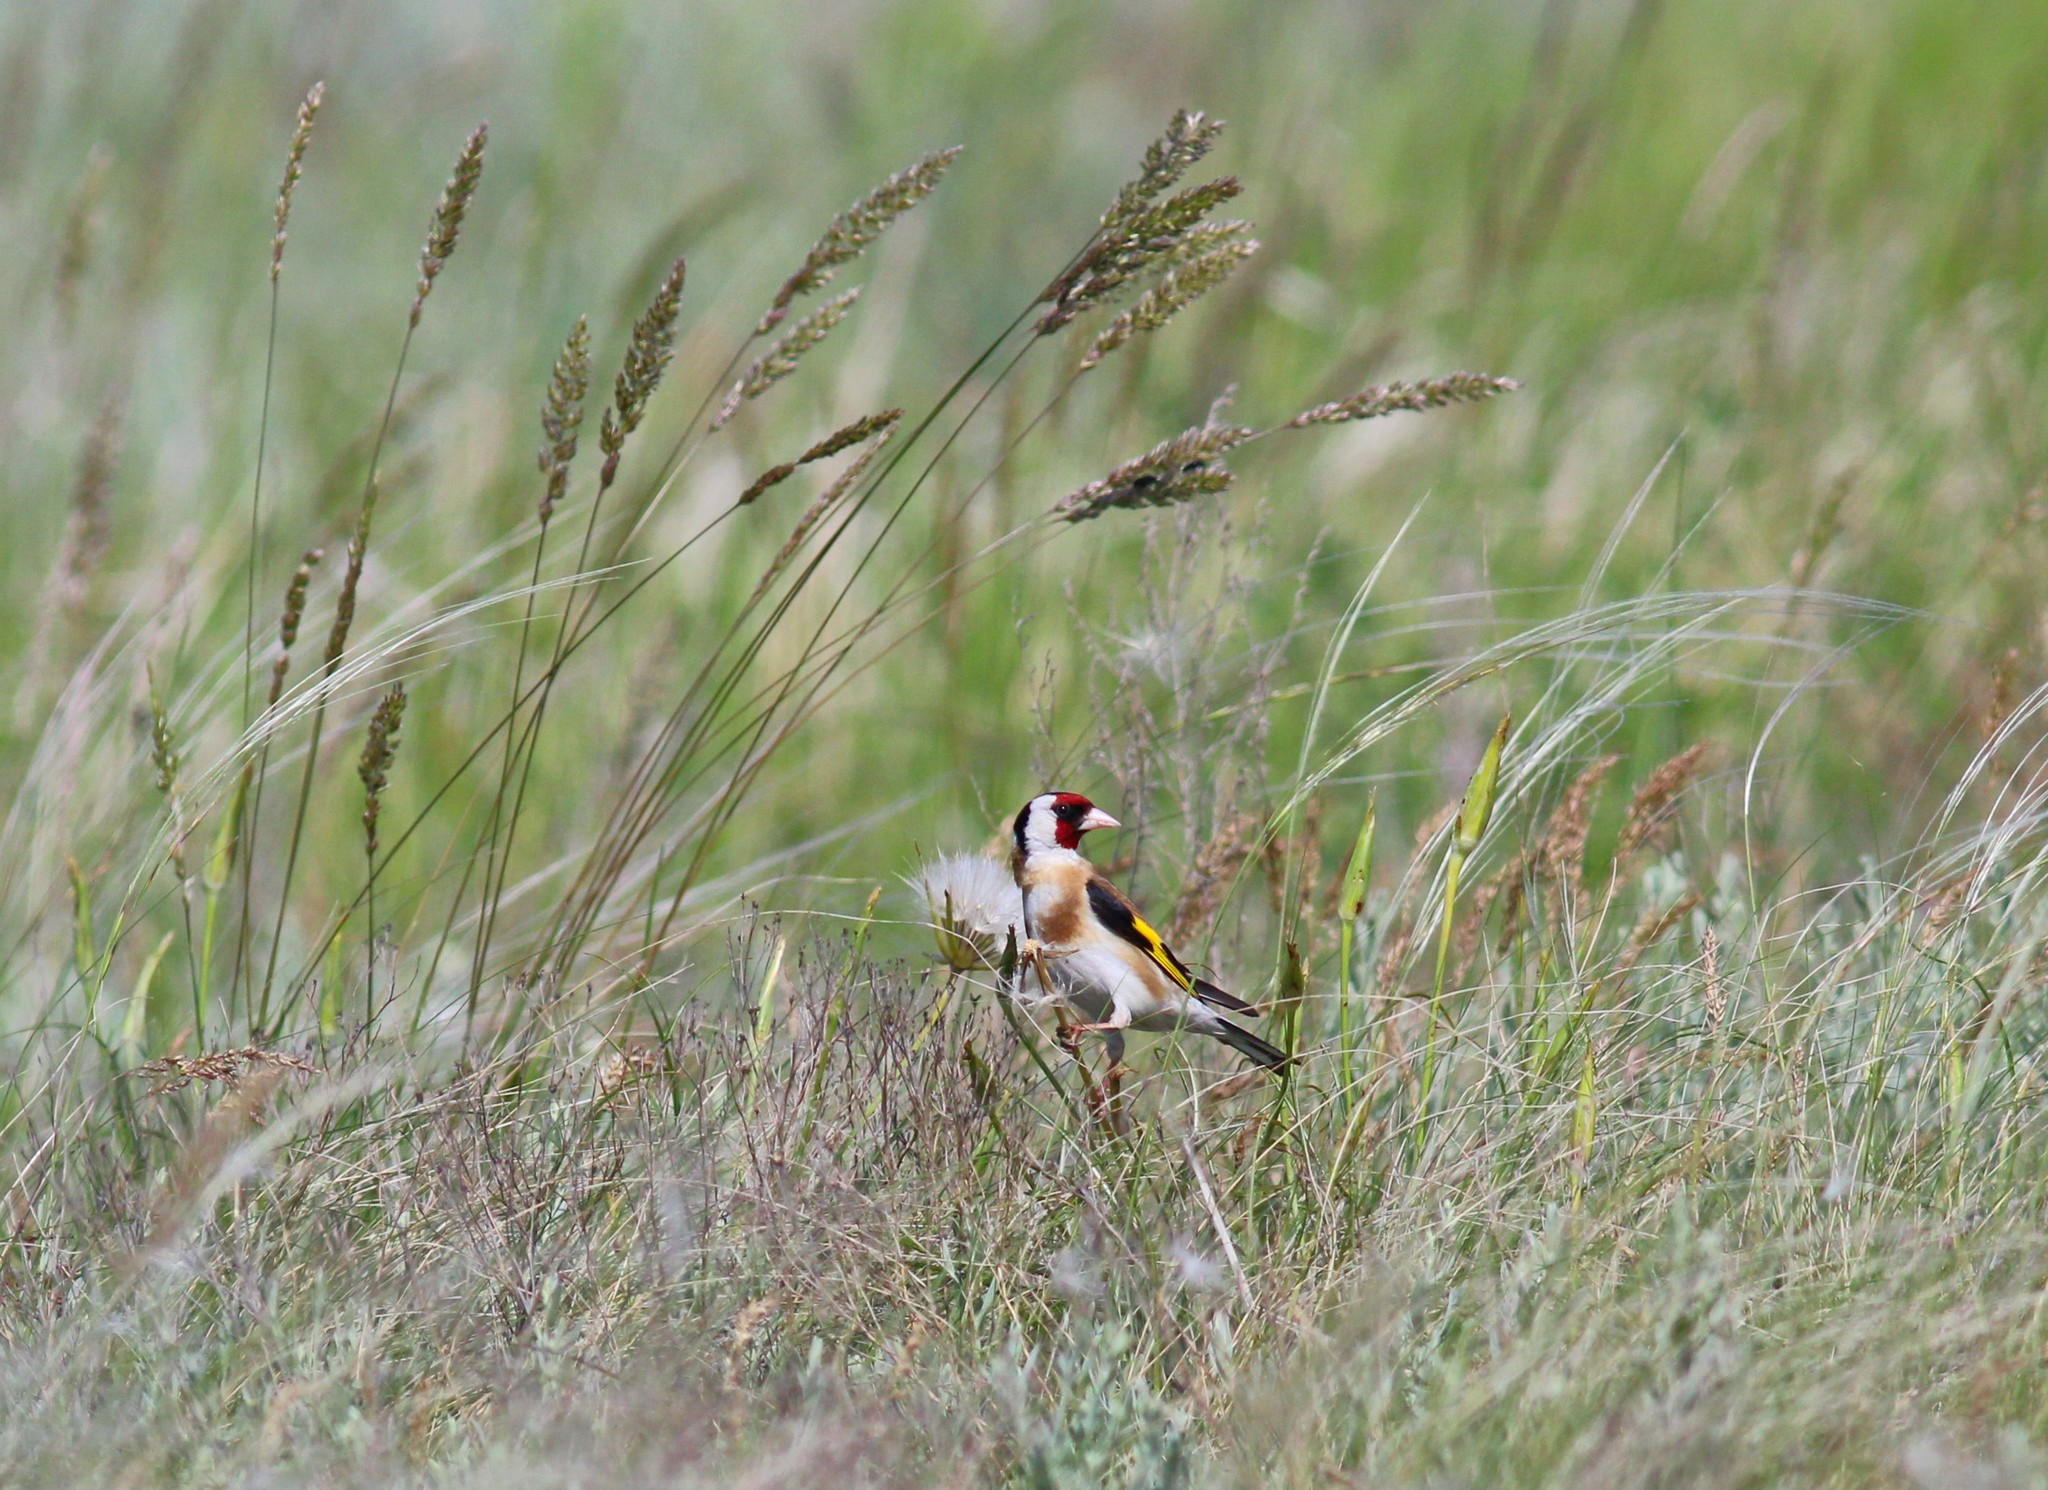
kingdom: Animalia
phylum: Chordata
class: Aves
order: Passeriformes
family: Fringillidae
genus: Carduelis
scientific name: Carduelis carduelis
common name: European goldfinch
